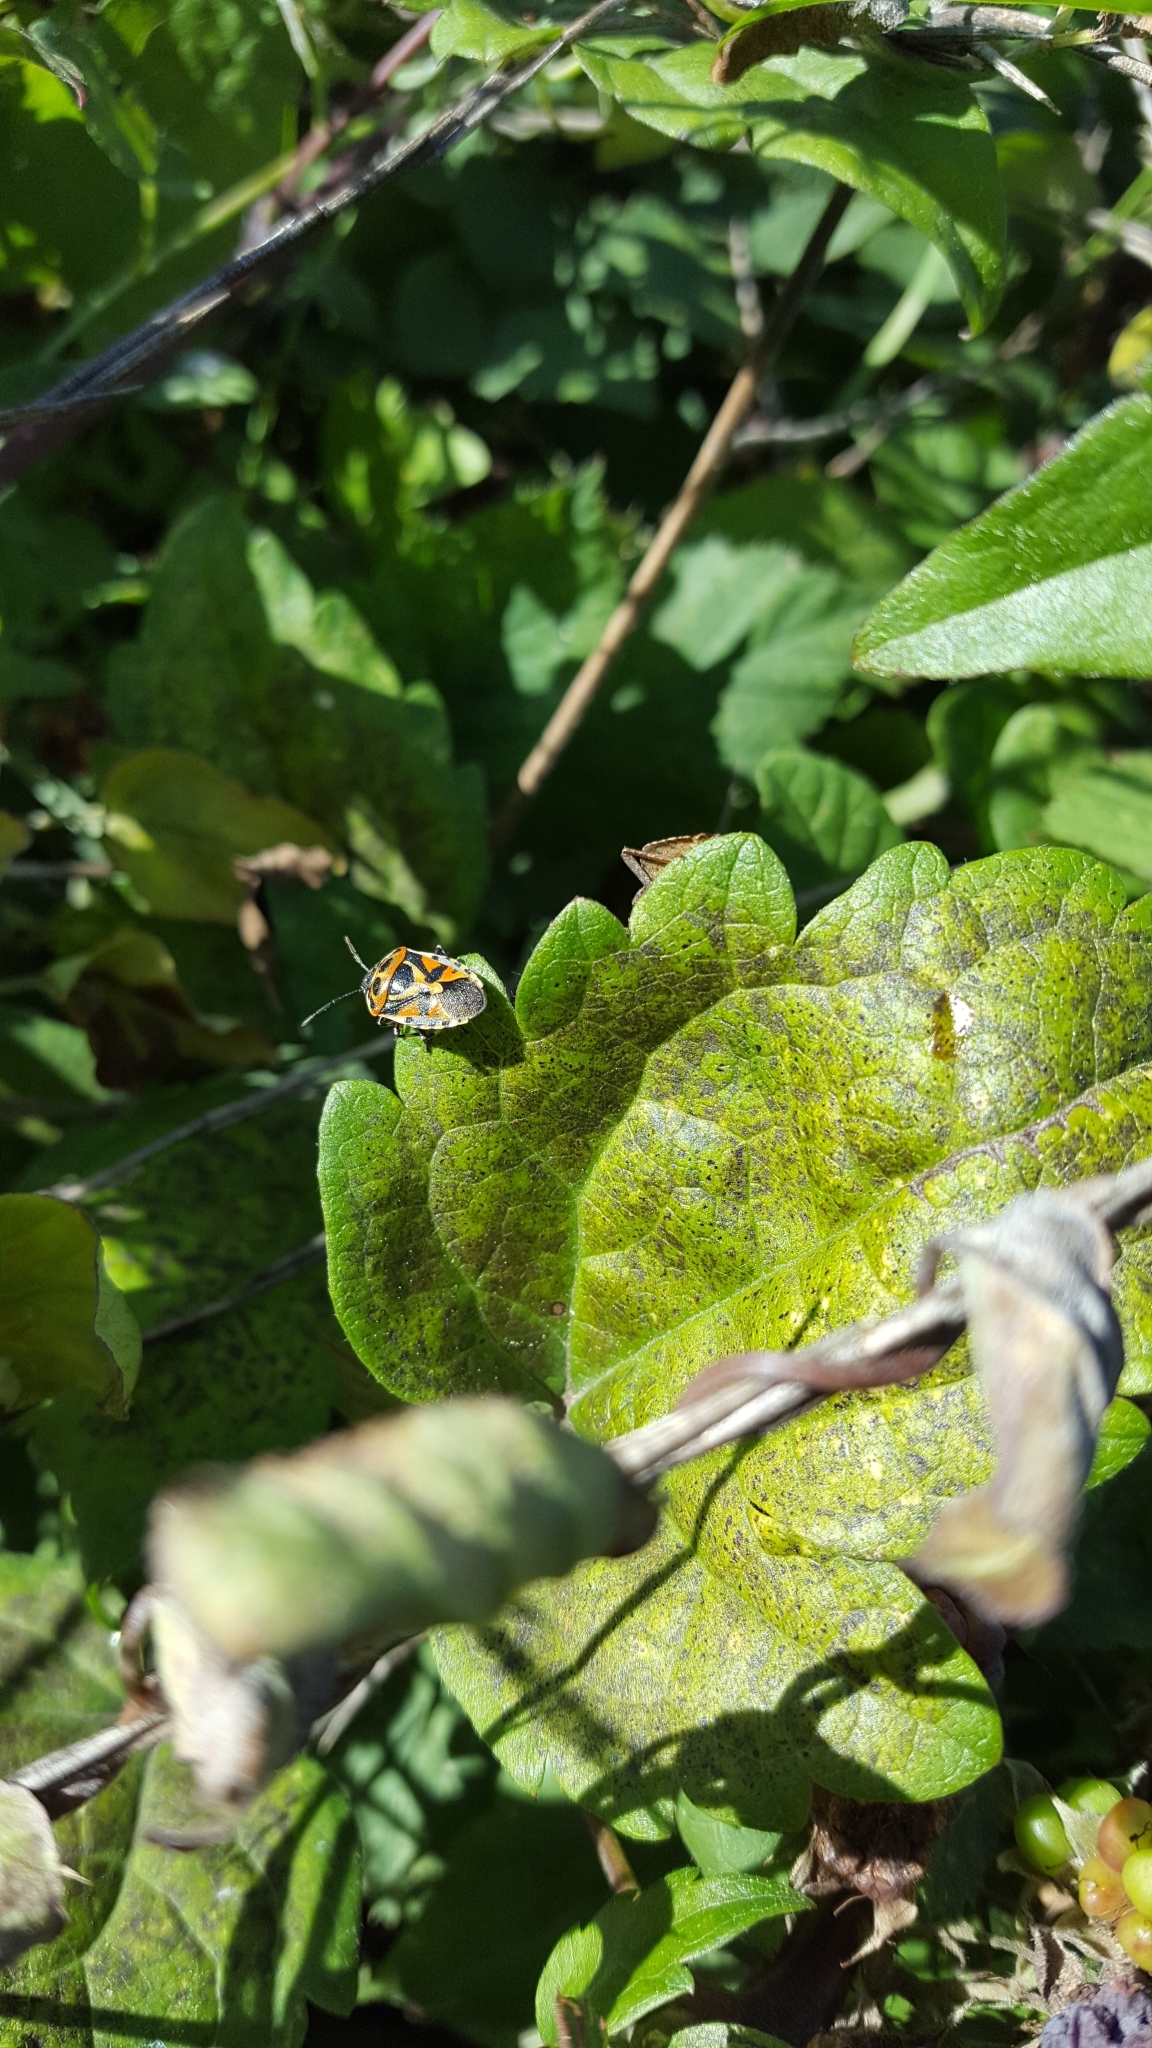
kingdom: Animalia
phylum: Arthropoda
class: Insecta
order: Hemiptera
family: Pentatomidae
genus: Eurydema
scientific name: Eurydema ornata
